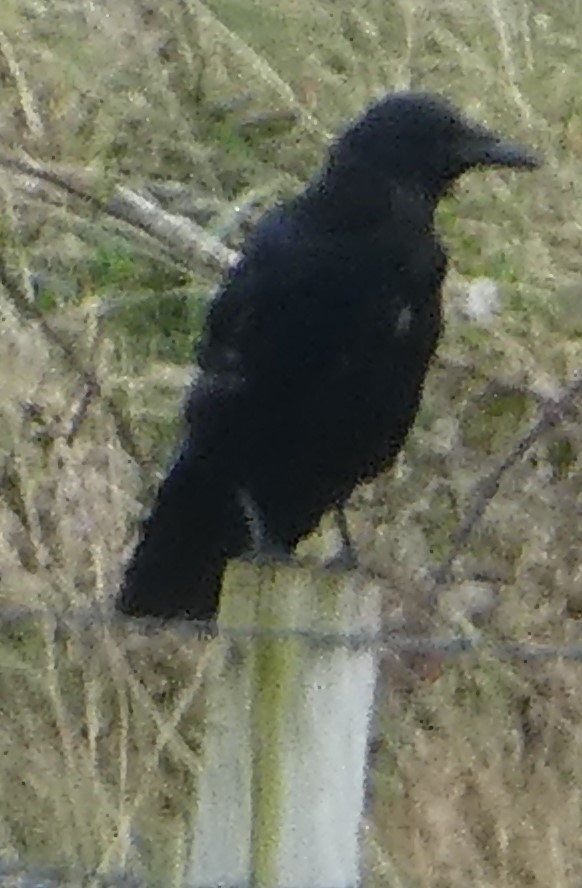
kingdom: Animalia
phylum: Chordata
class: Aves
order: Passeriformes
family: Corvidae
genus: Corvus
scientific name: Corvus corone
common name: Carrion crow
